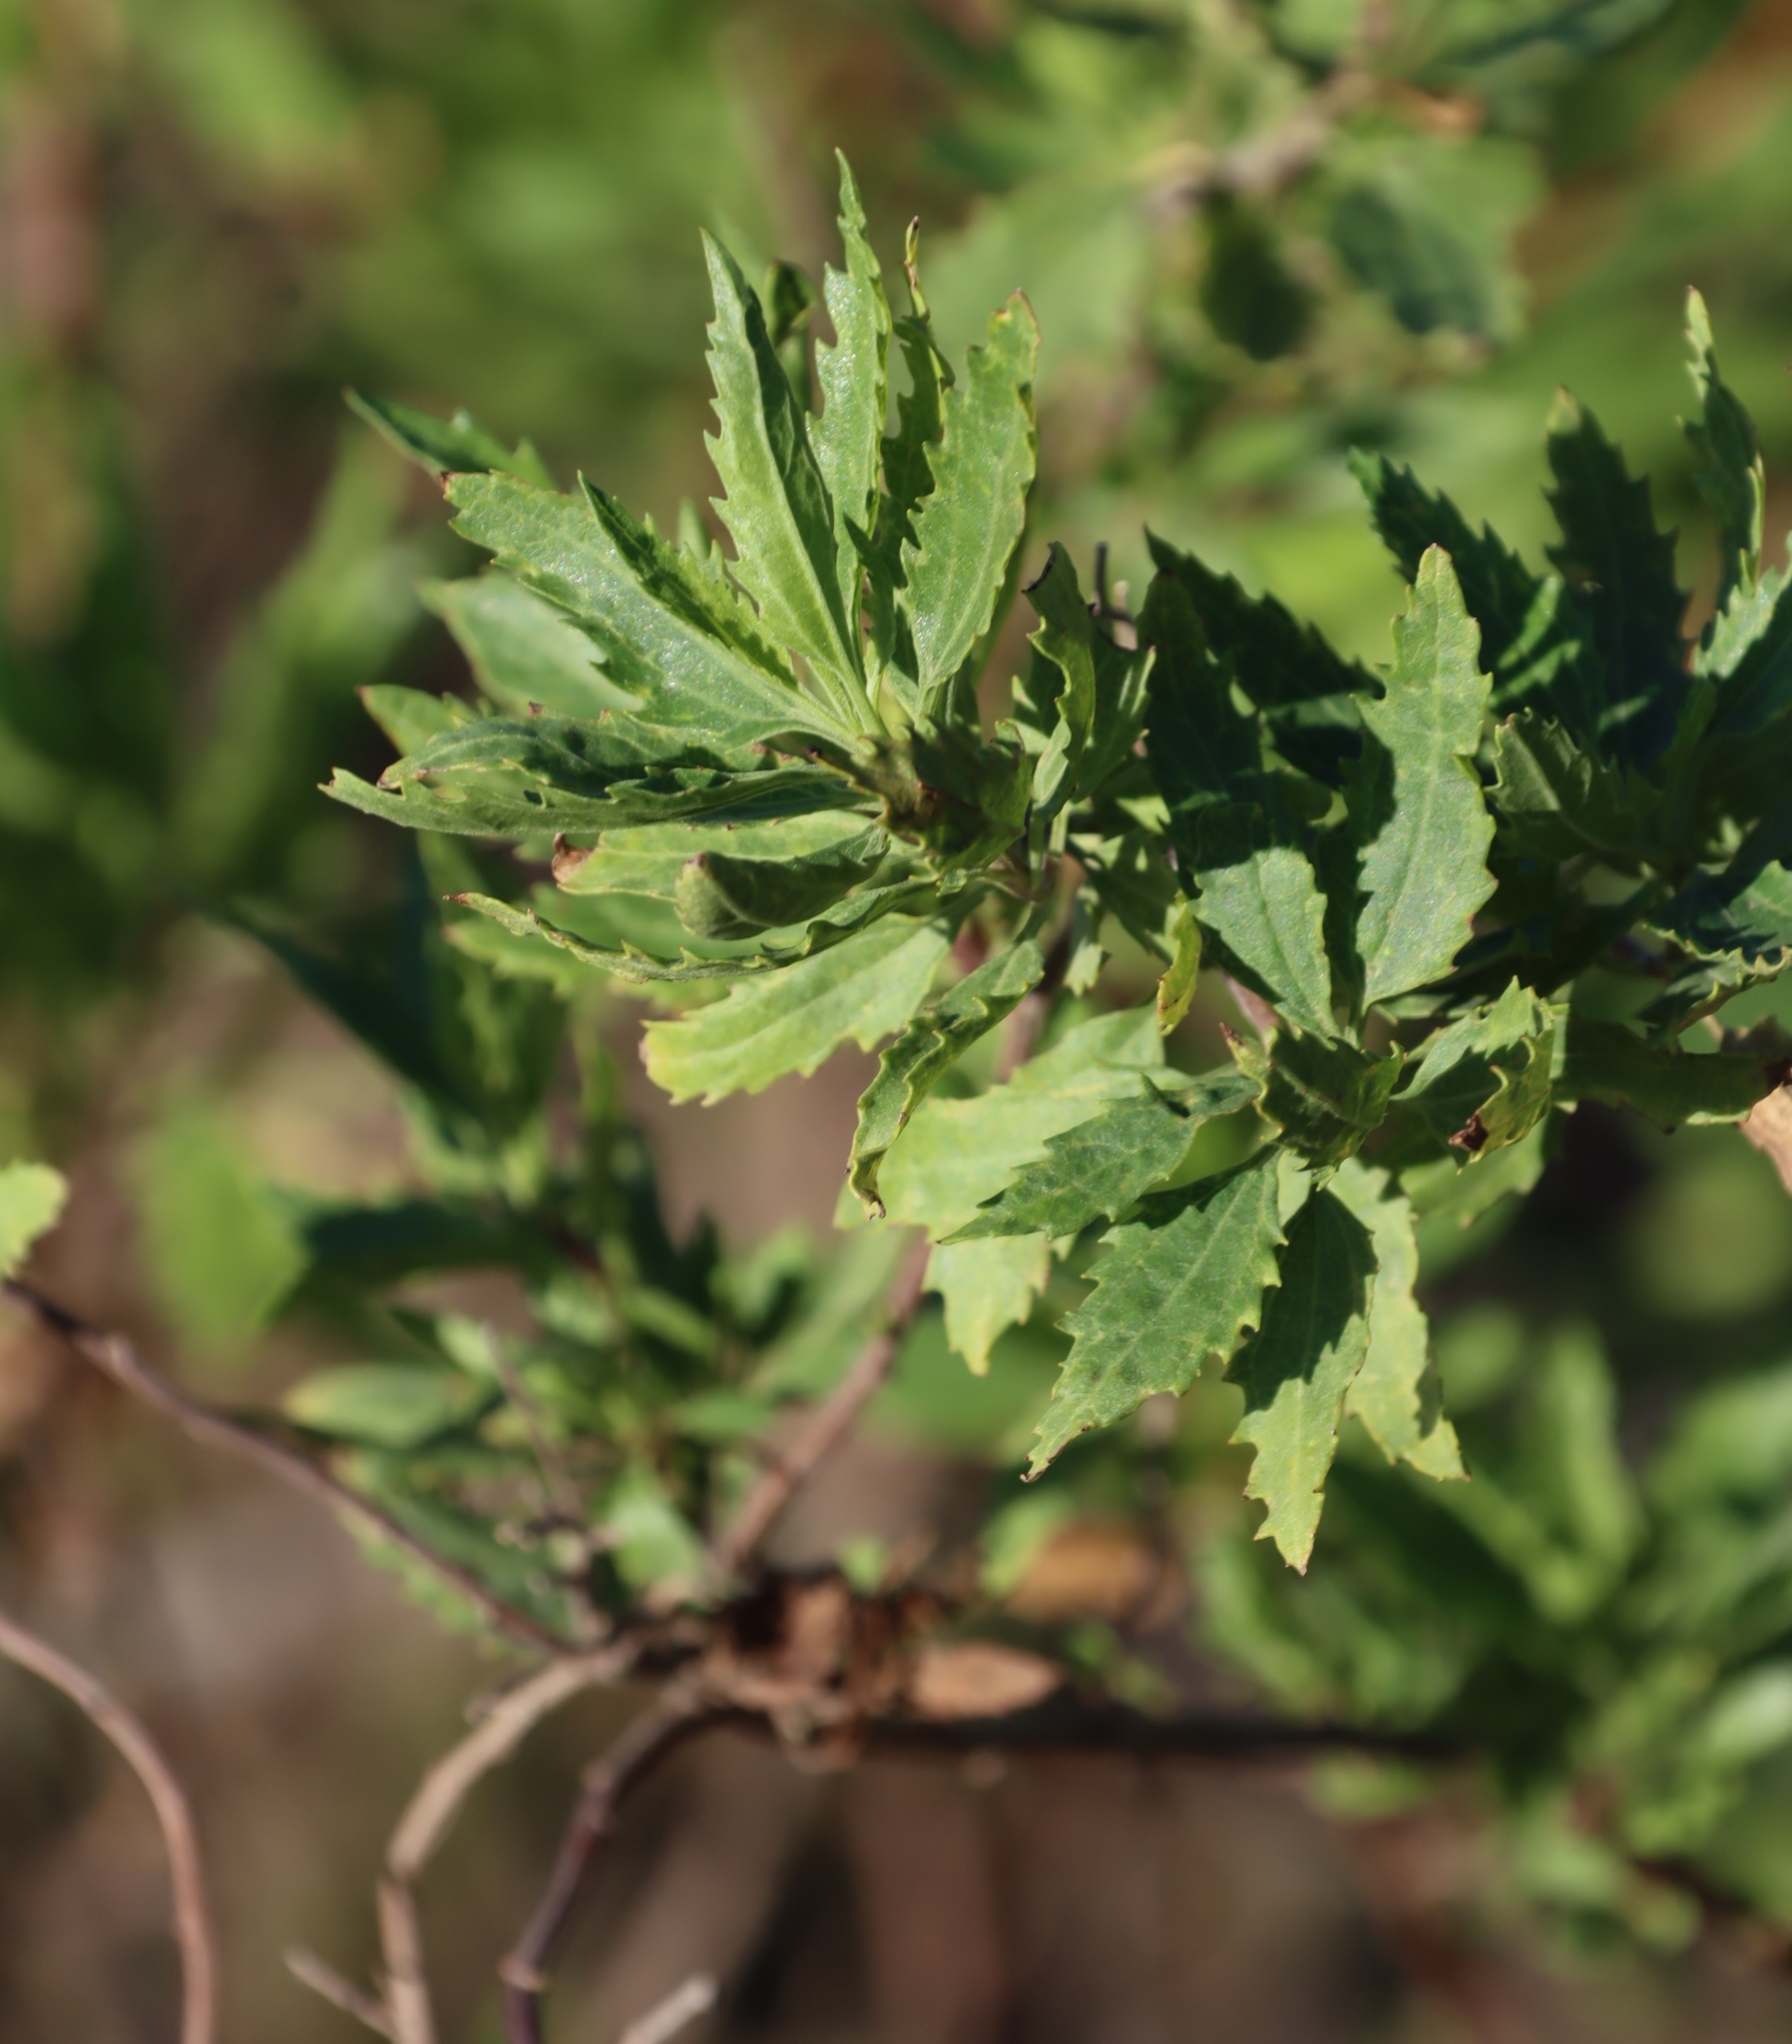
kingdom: Plantae
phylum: Tracheophyta
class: Magnoliopsida
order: Asterales
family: Asteraceae
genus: Nidorella
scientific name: Nidorella ivifolia
